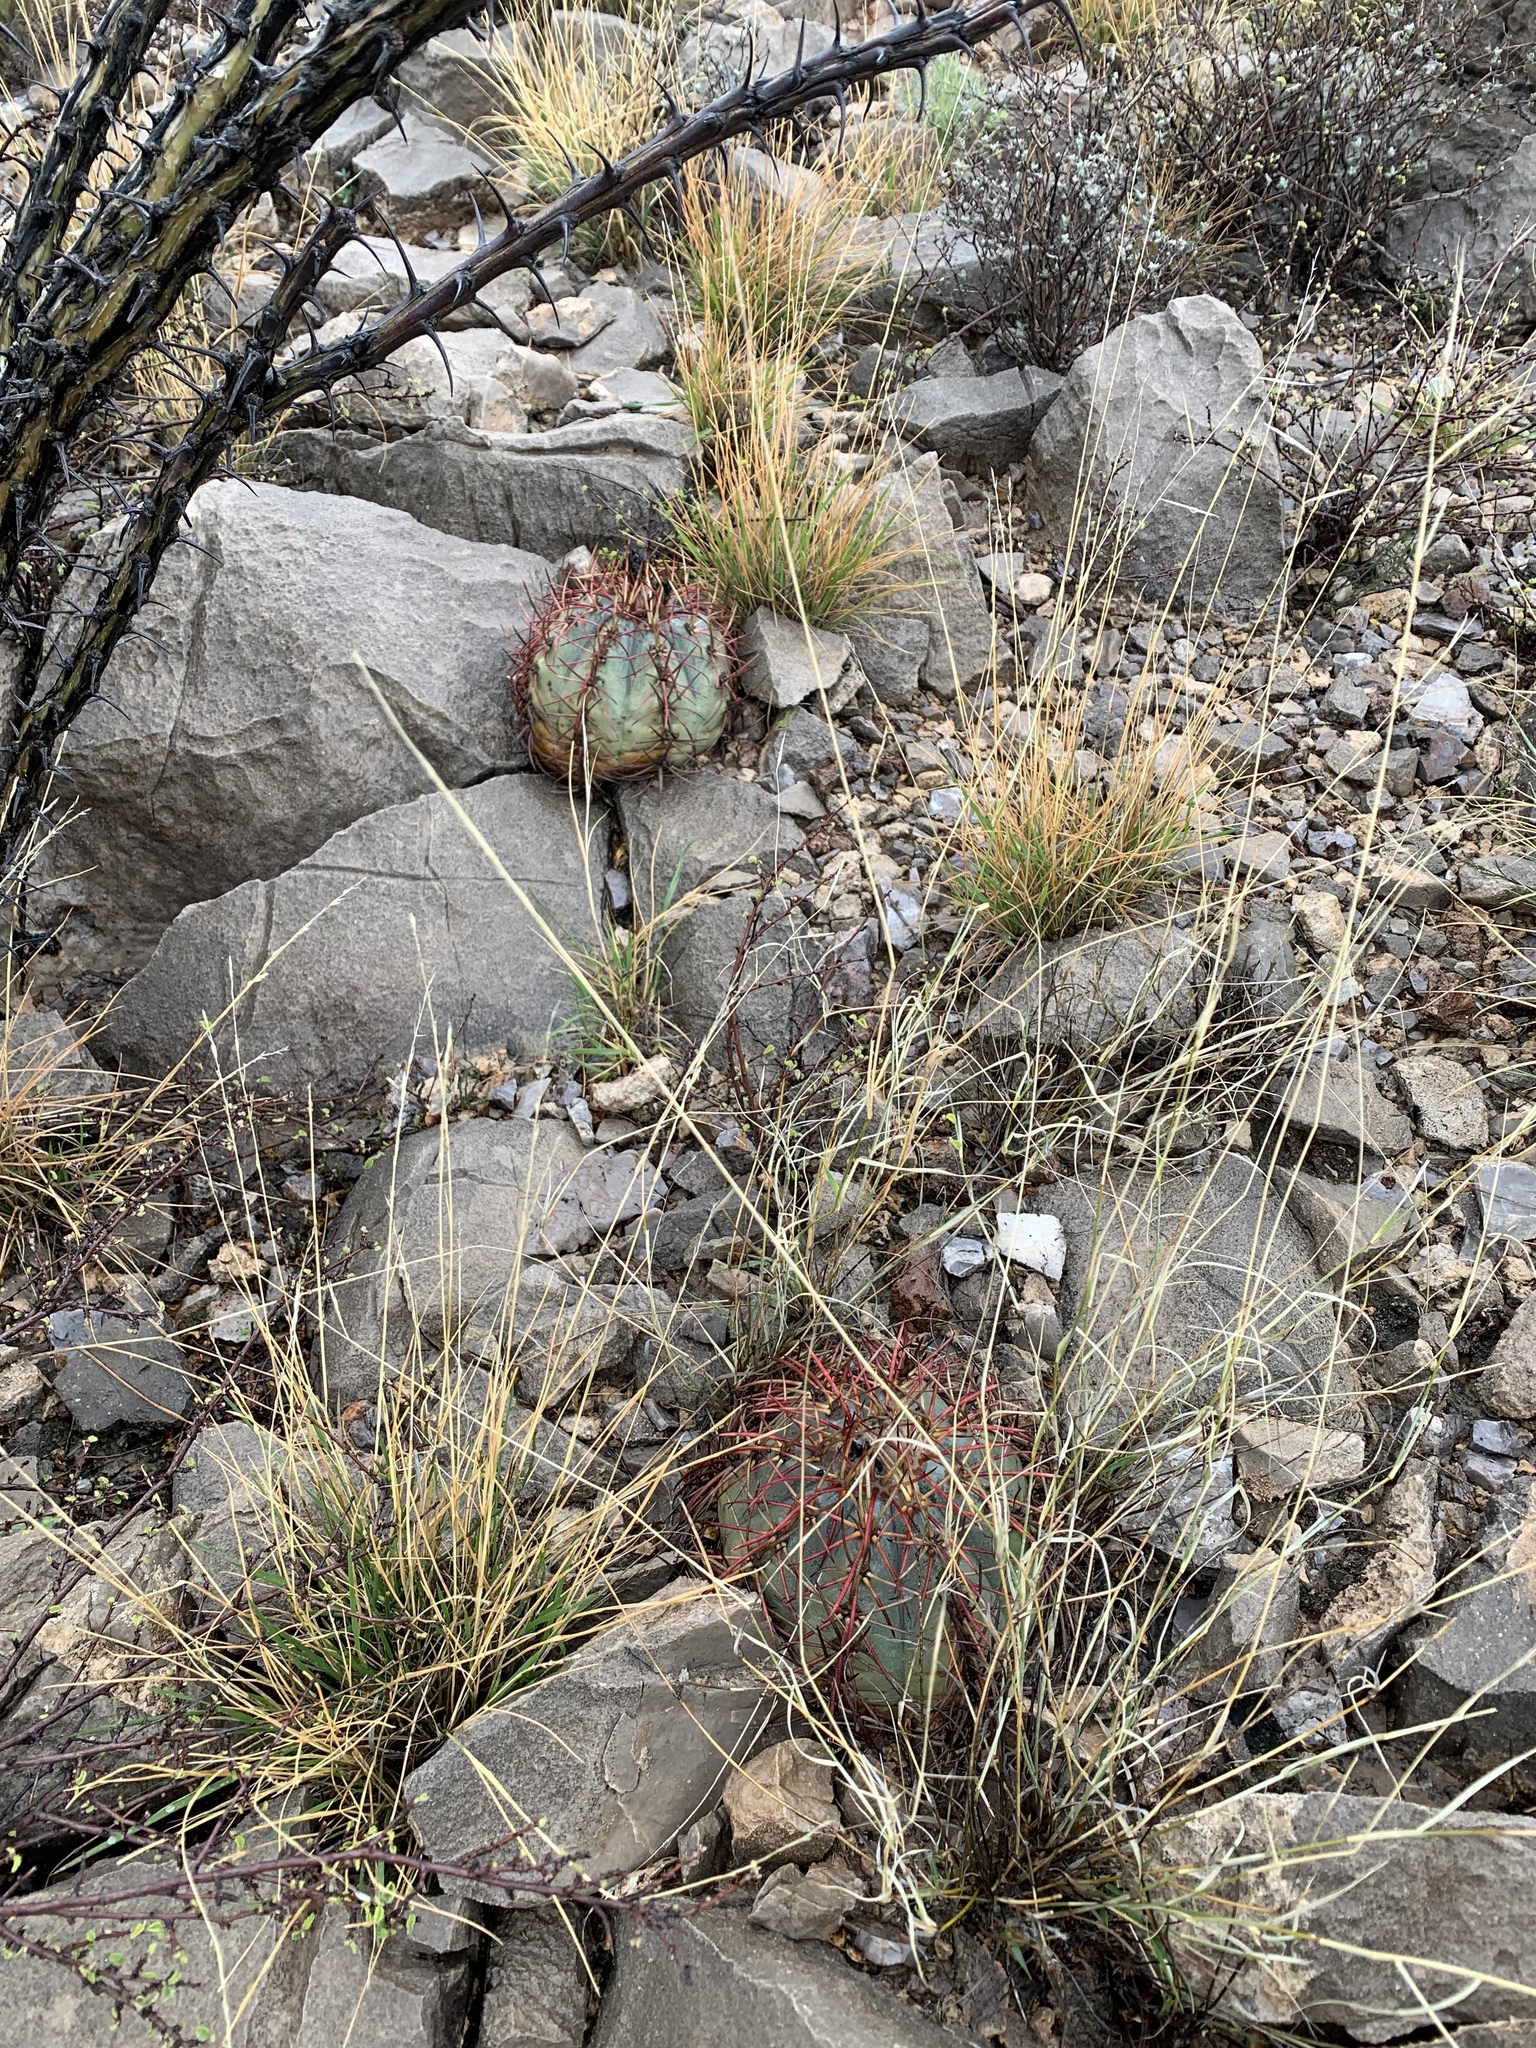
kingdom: Plantae
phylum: Tracheophyta
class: Magnoliopsida
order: Caryophyllales
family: Cactaceae
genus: Echinocactus
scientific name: Echinocactus horizonthalonius
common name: Devilshead
